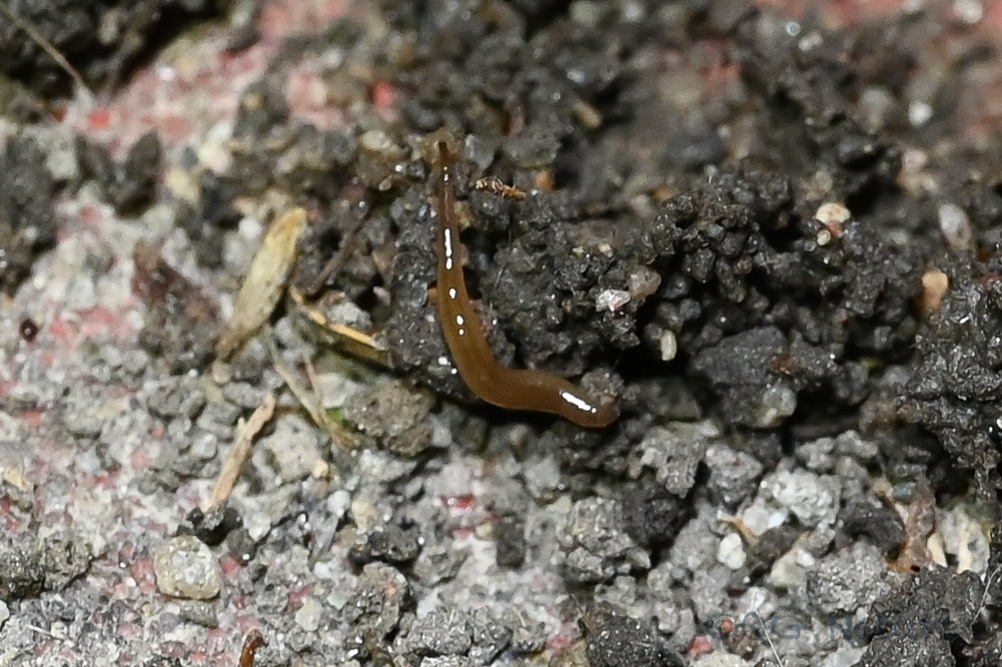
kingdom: Animalia
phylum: Platyhelminthes
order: Tricladida
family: Geoplanidae
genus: Rhynchodemus
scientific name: Rhynchodemus sylvaticus
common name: A flatworm
